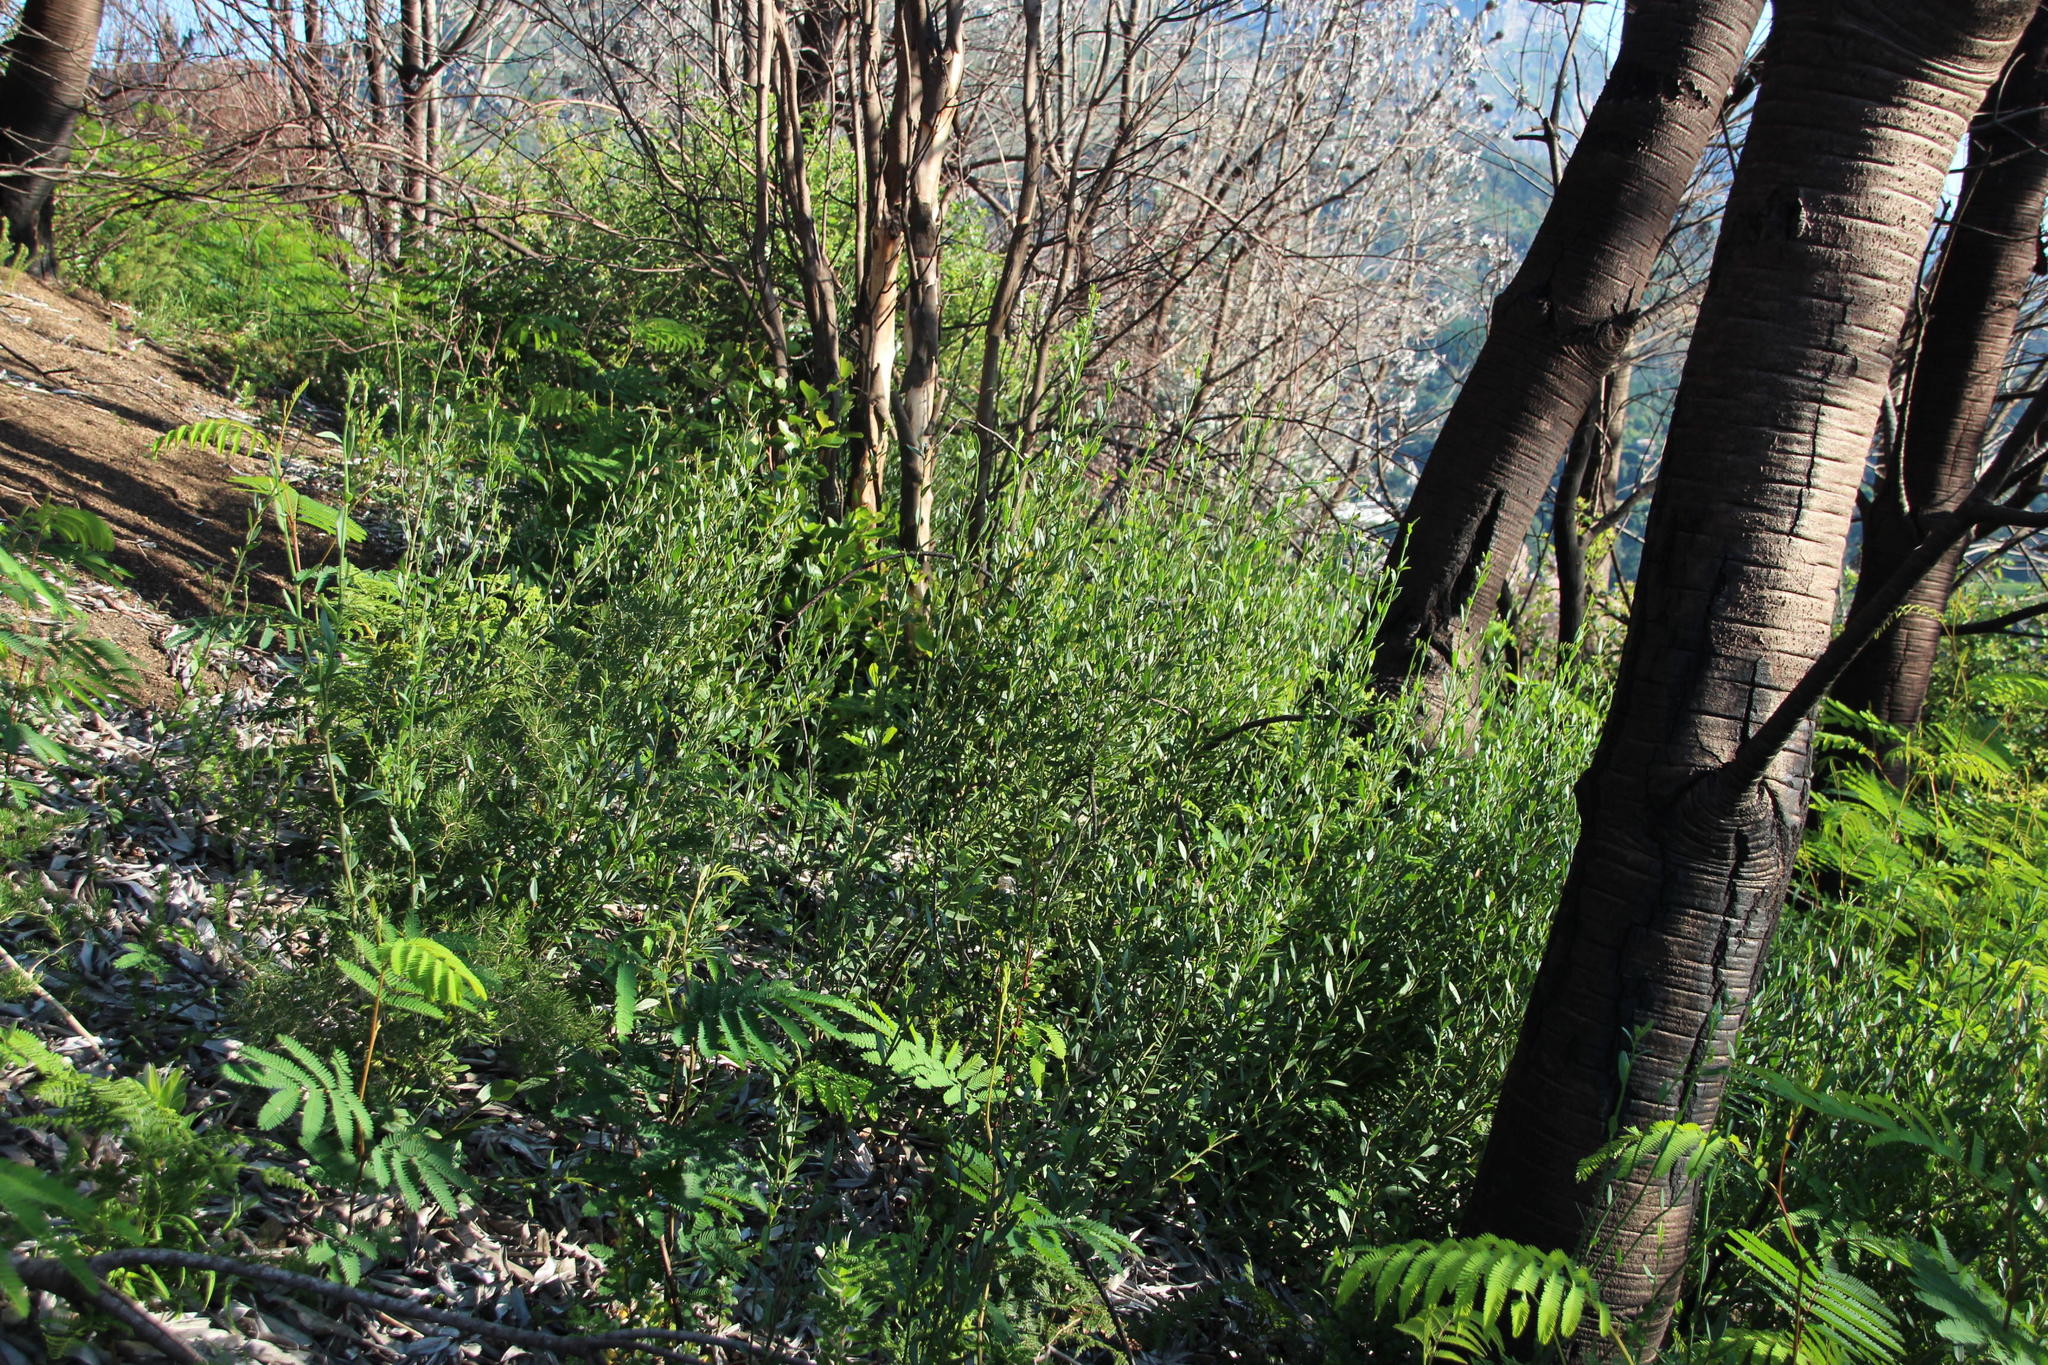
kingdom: Plantae
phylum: Tracheophyta
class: Magnoliopsida
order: Solanales
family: Montiniaceae
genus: Montinia
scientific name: Montinia caryophyllacea
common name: Wild clove-bush
